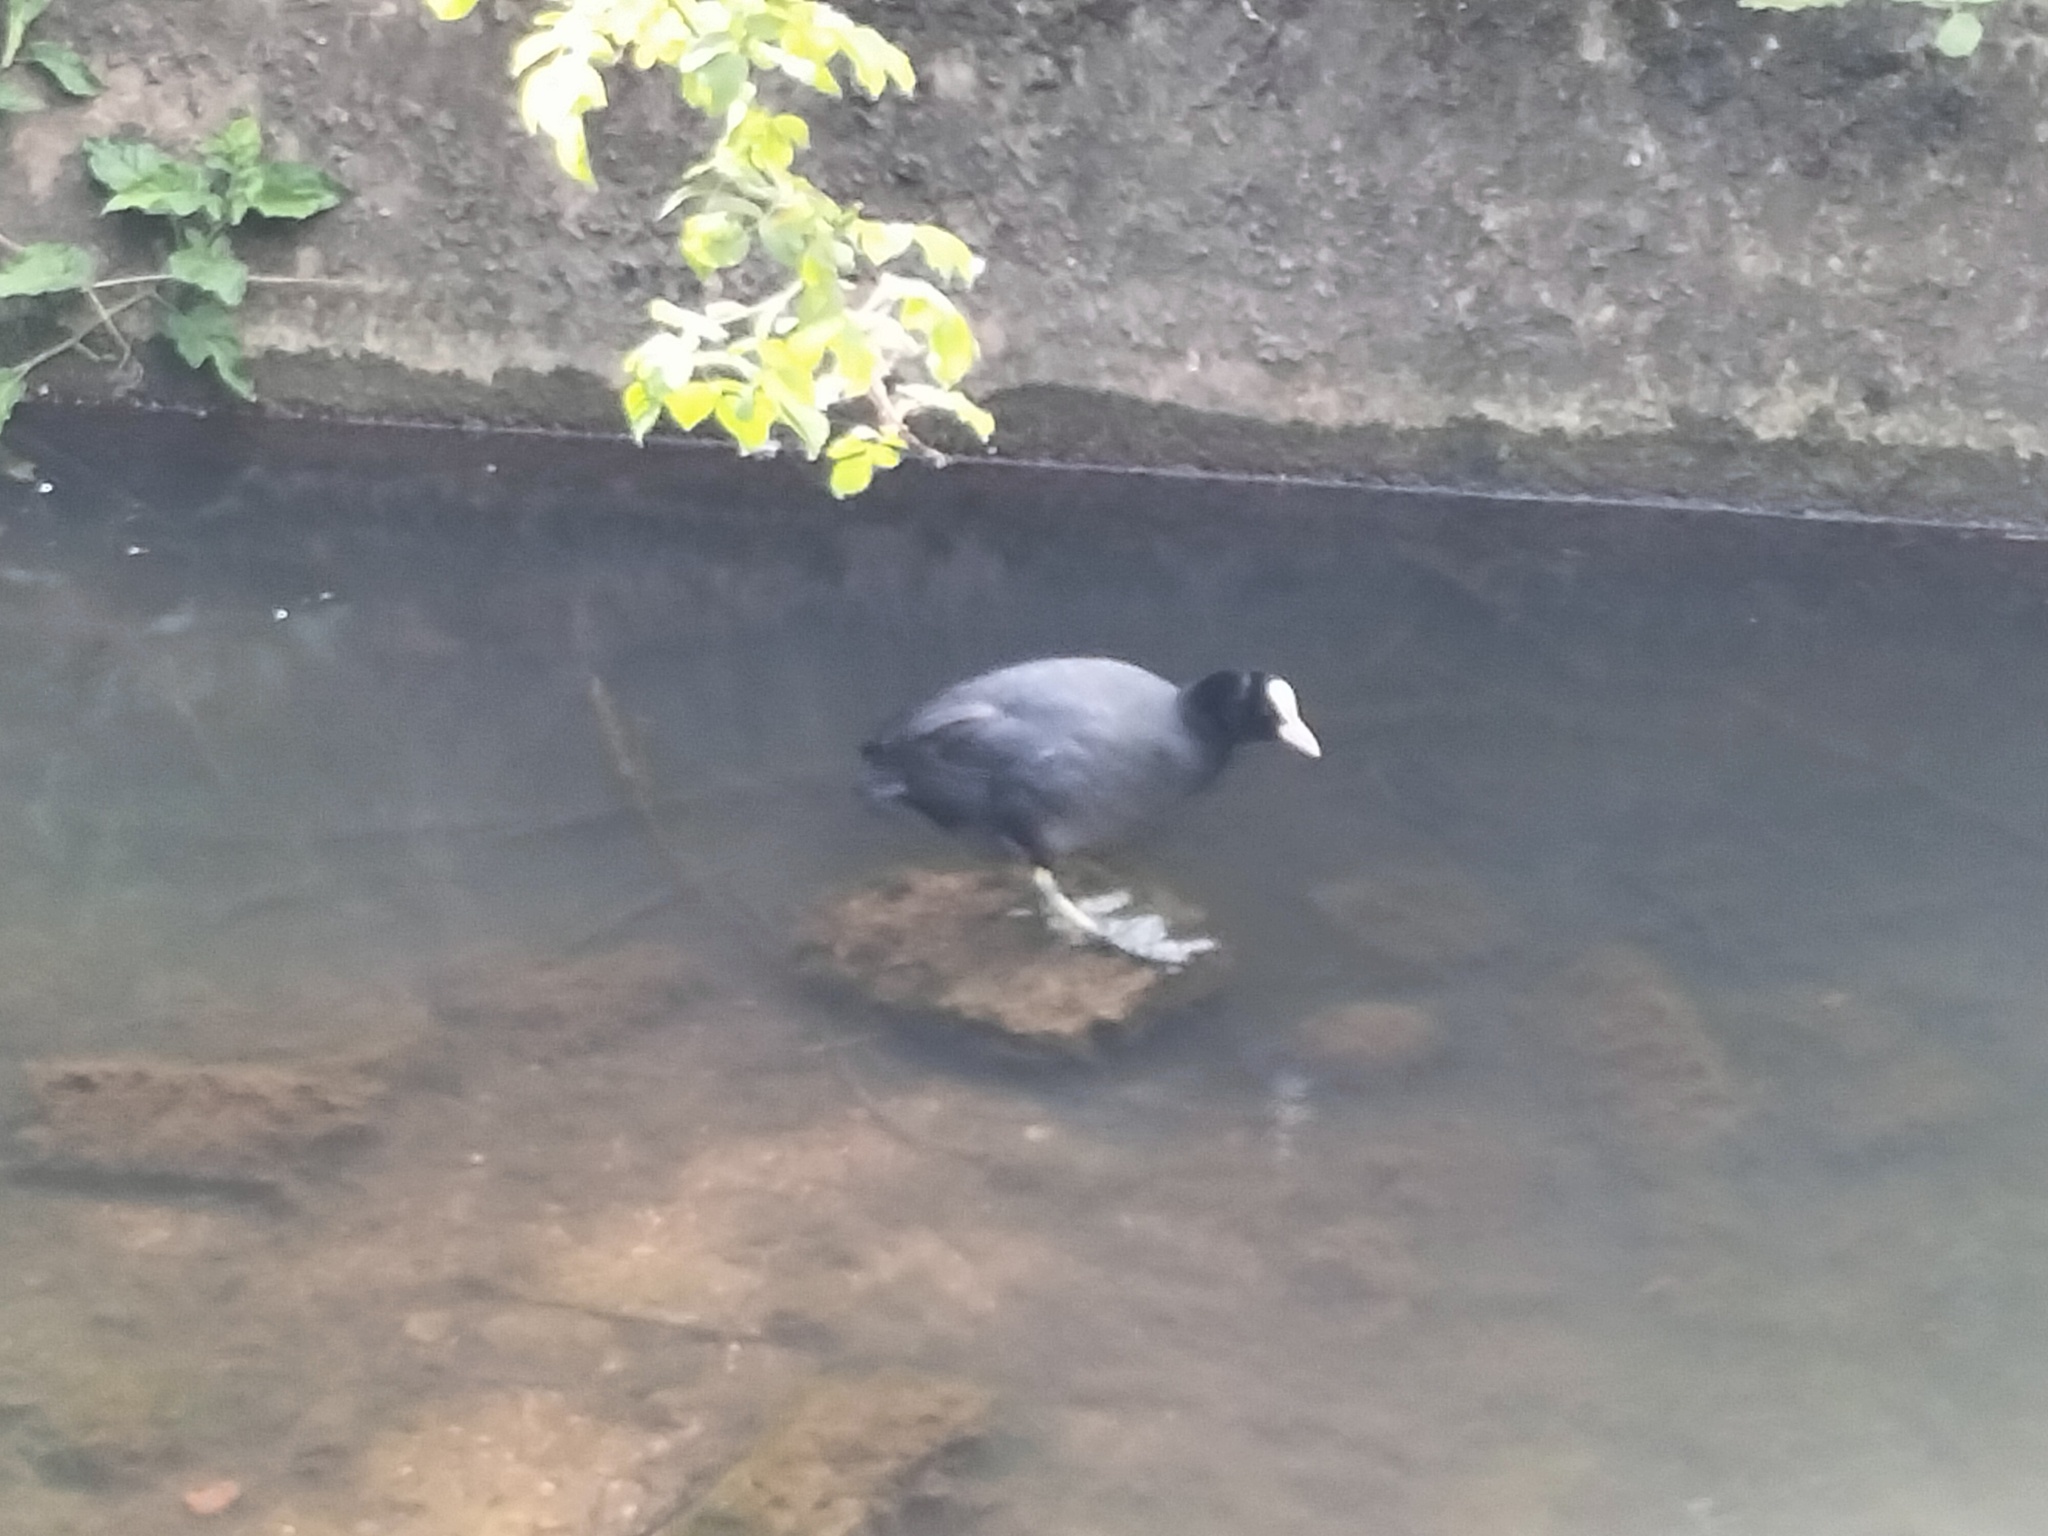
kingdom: Animalia
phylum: Chordata
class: Aves
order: Gruiformes
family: Rallidae
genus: Fulica
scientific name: Fulica atra
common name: Eurasian coot
